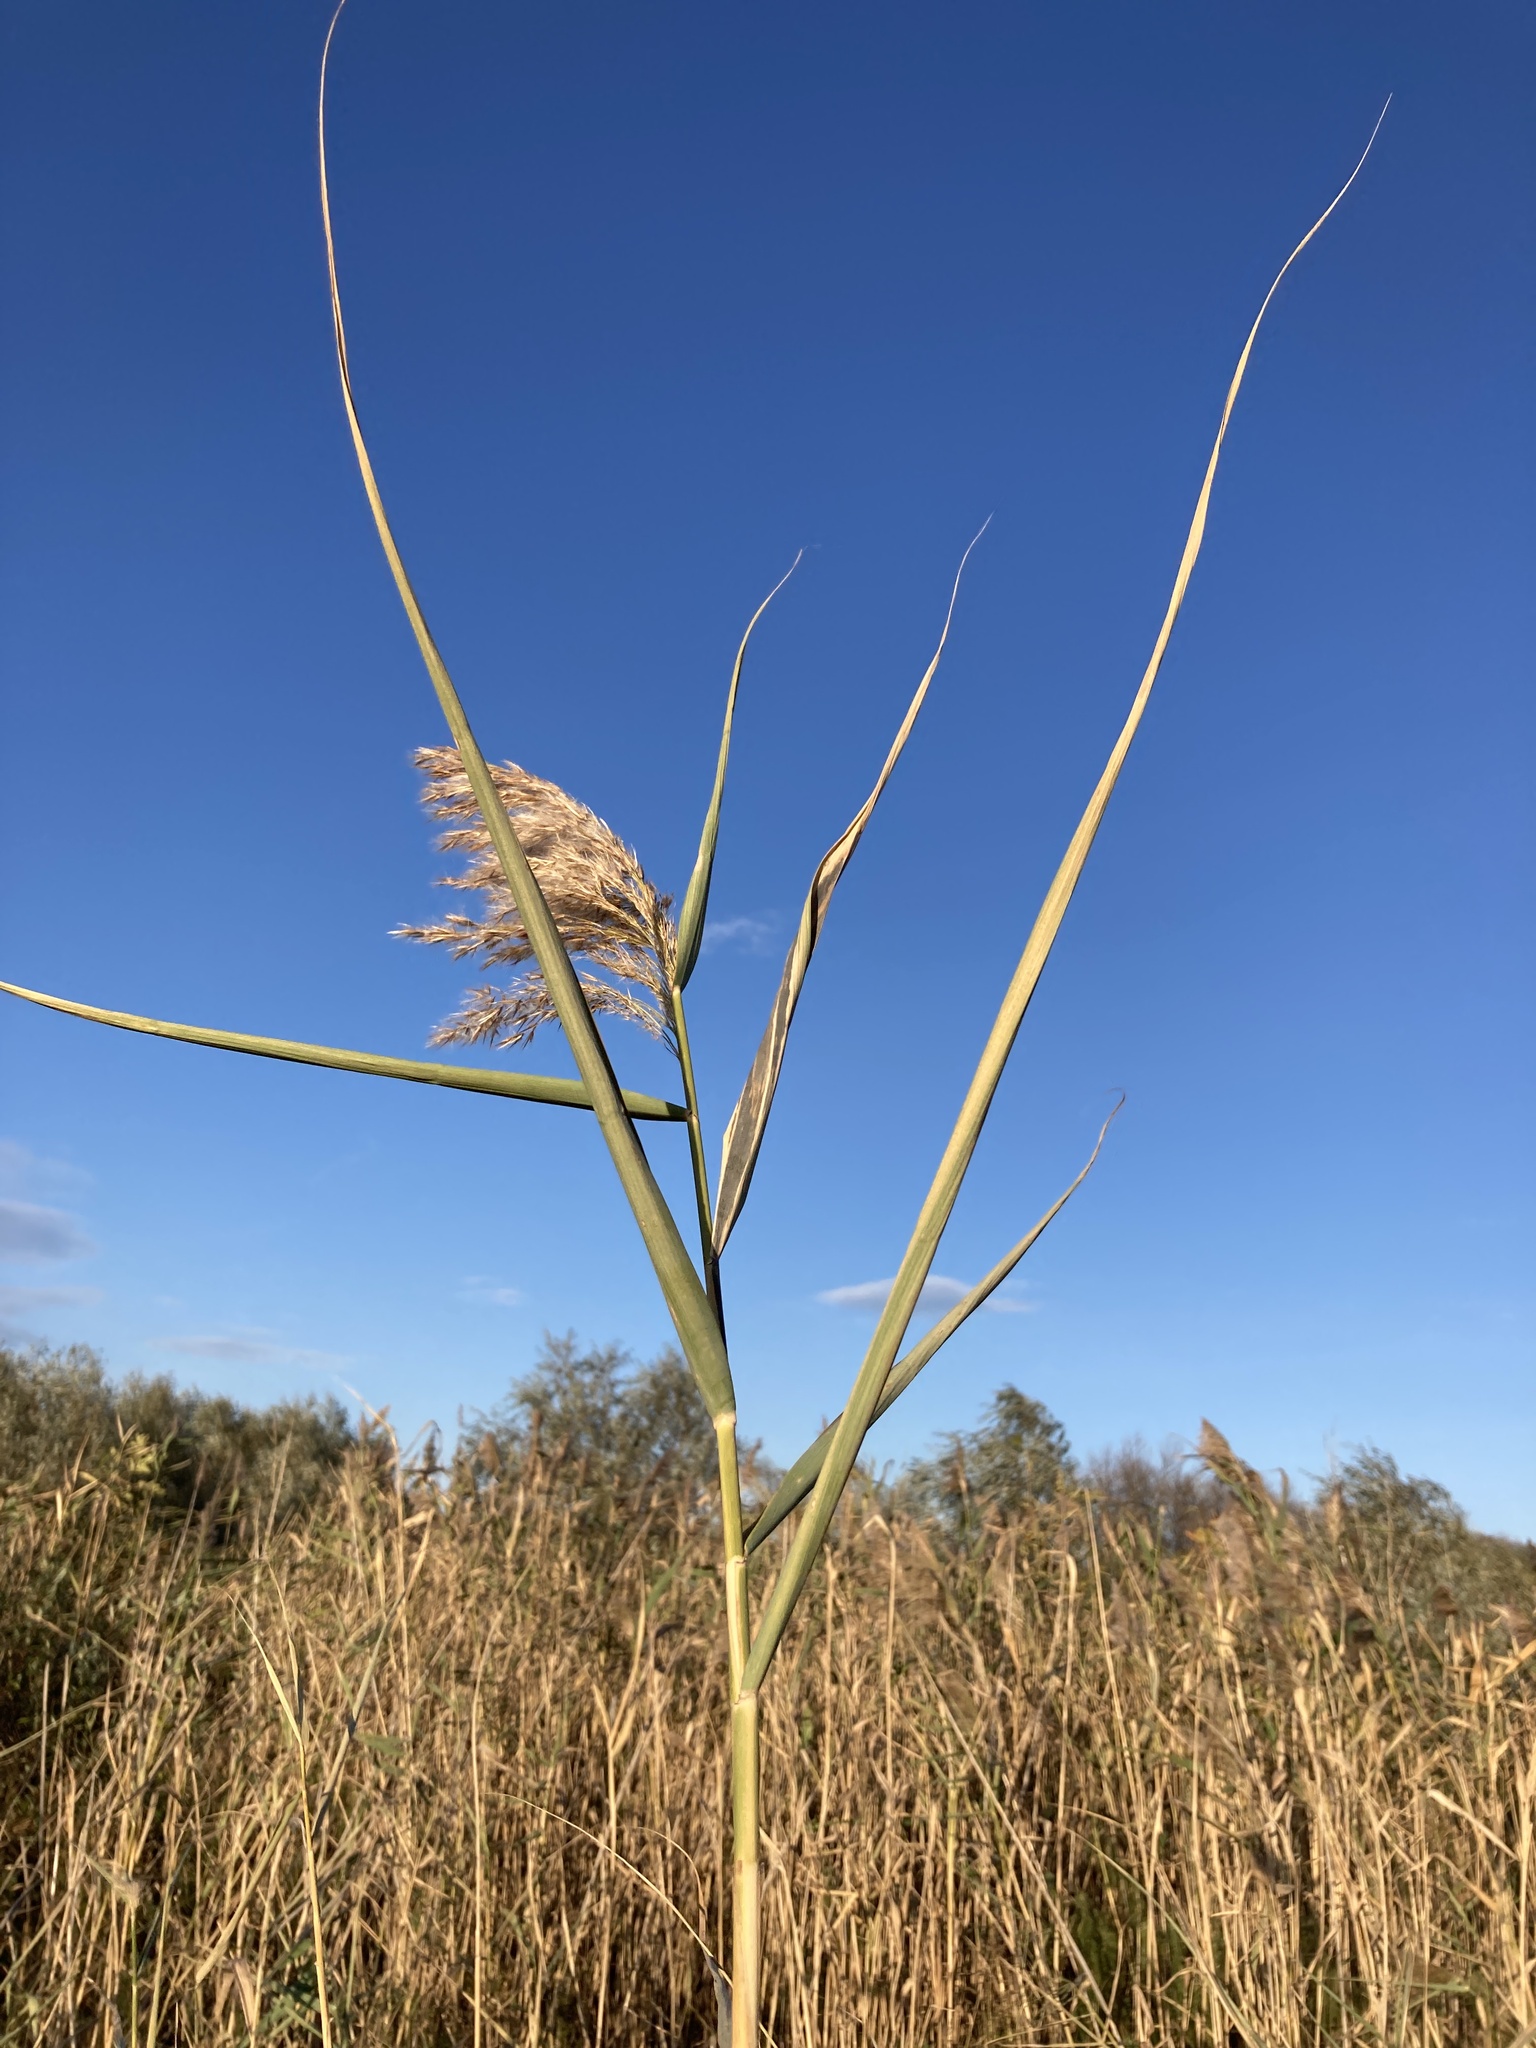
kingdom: Plantae
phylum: Tracheophyta
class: Liliopsida
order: Poales
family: Poaceae
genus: Phragmites
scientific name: Phragmites australis
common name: Common reed
